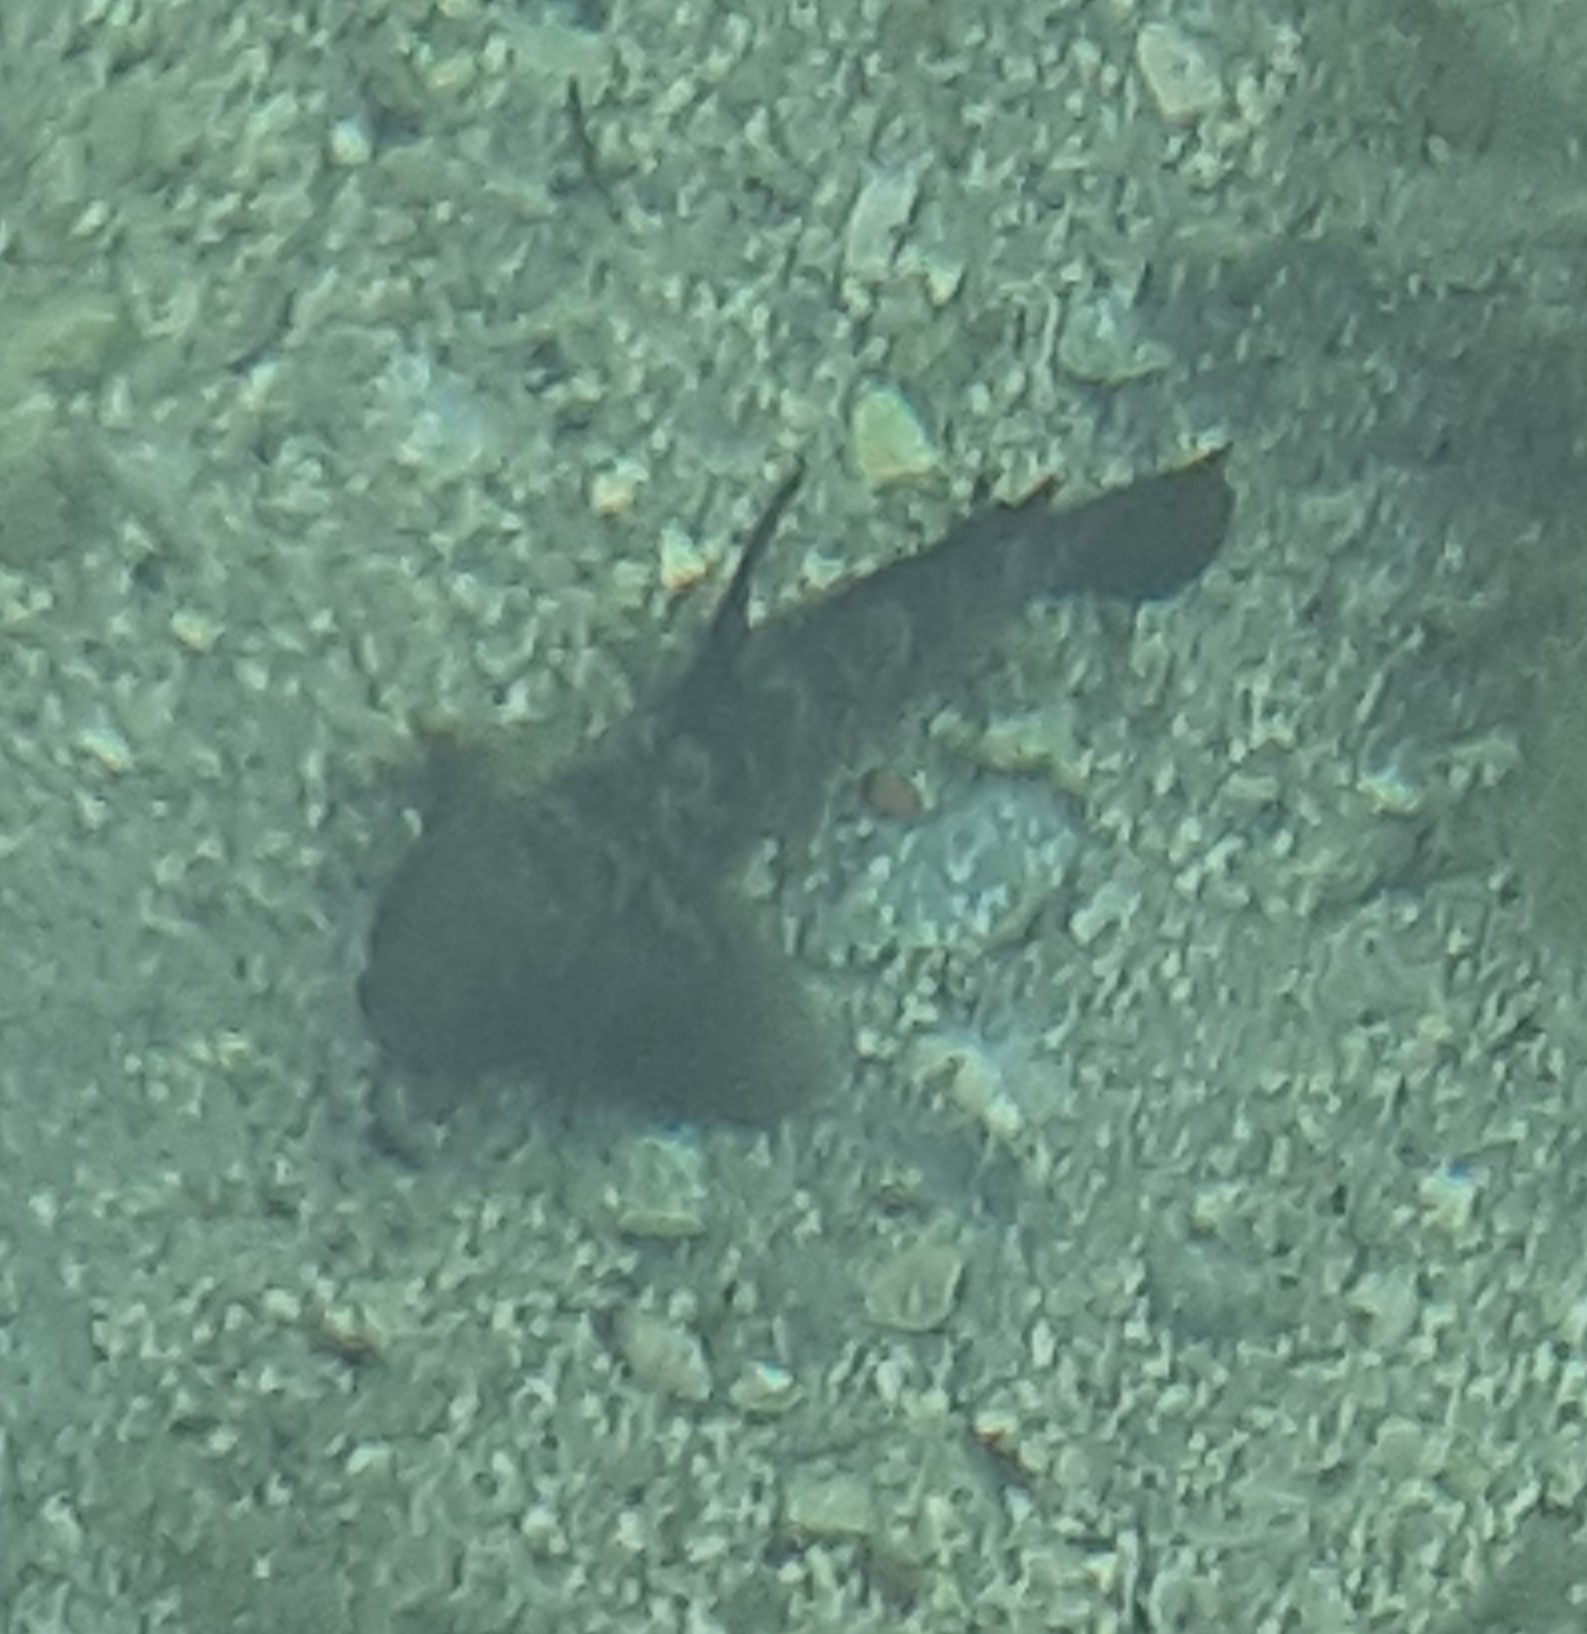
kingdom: Animalia
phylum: Chordata
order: Perciformes
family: Gobiidae
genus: Gobius
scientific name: Gobius niger
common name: Black goby
